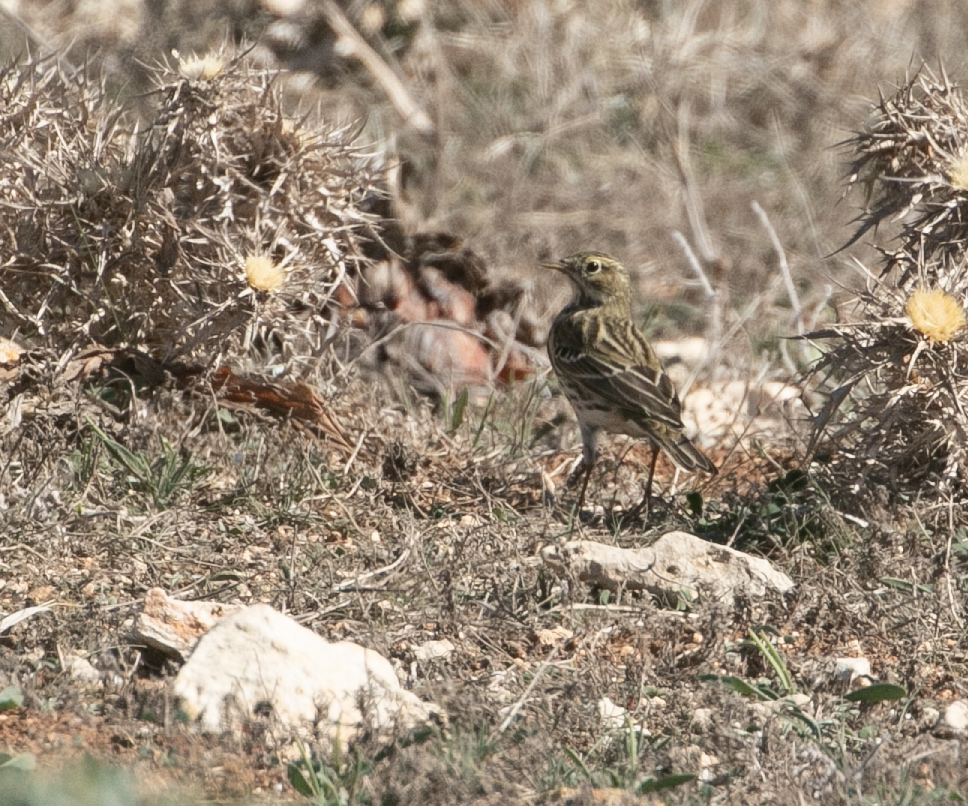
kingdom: Animalia
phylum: Chordata
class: Aves
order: Passeriformes
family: Motacillidae
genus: Anthus
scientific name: Anthus pratensis
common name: Meadow pipit
